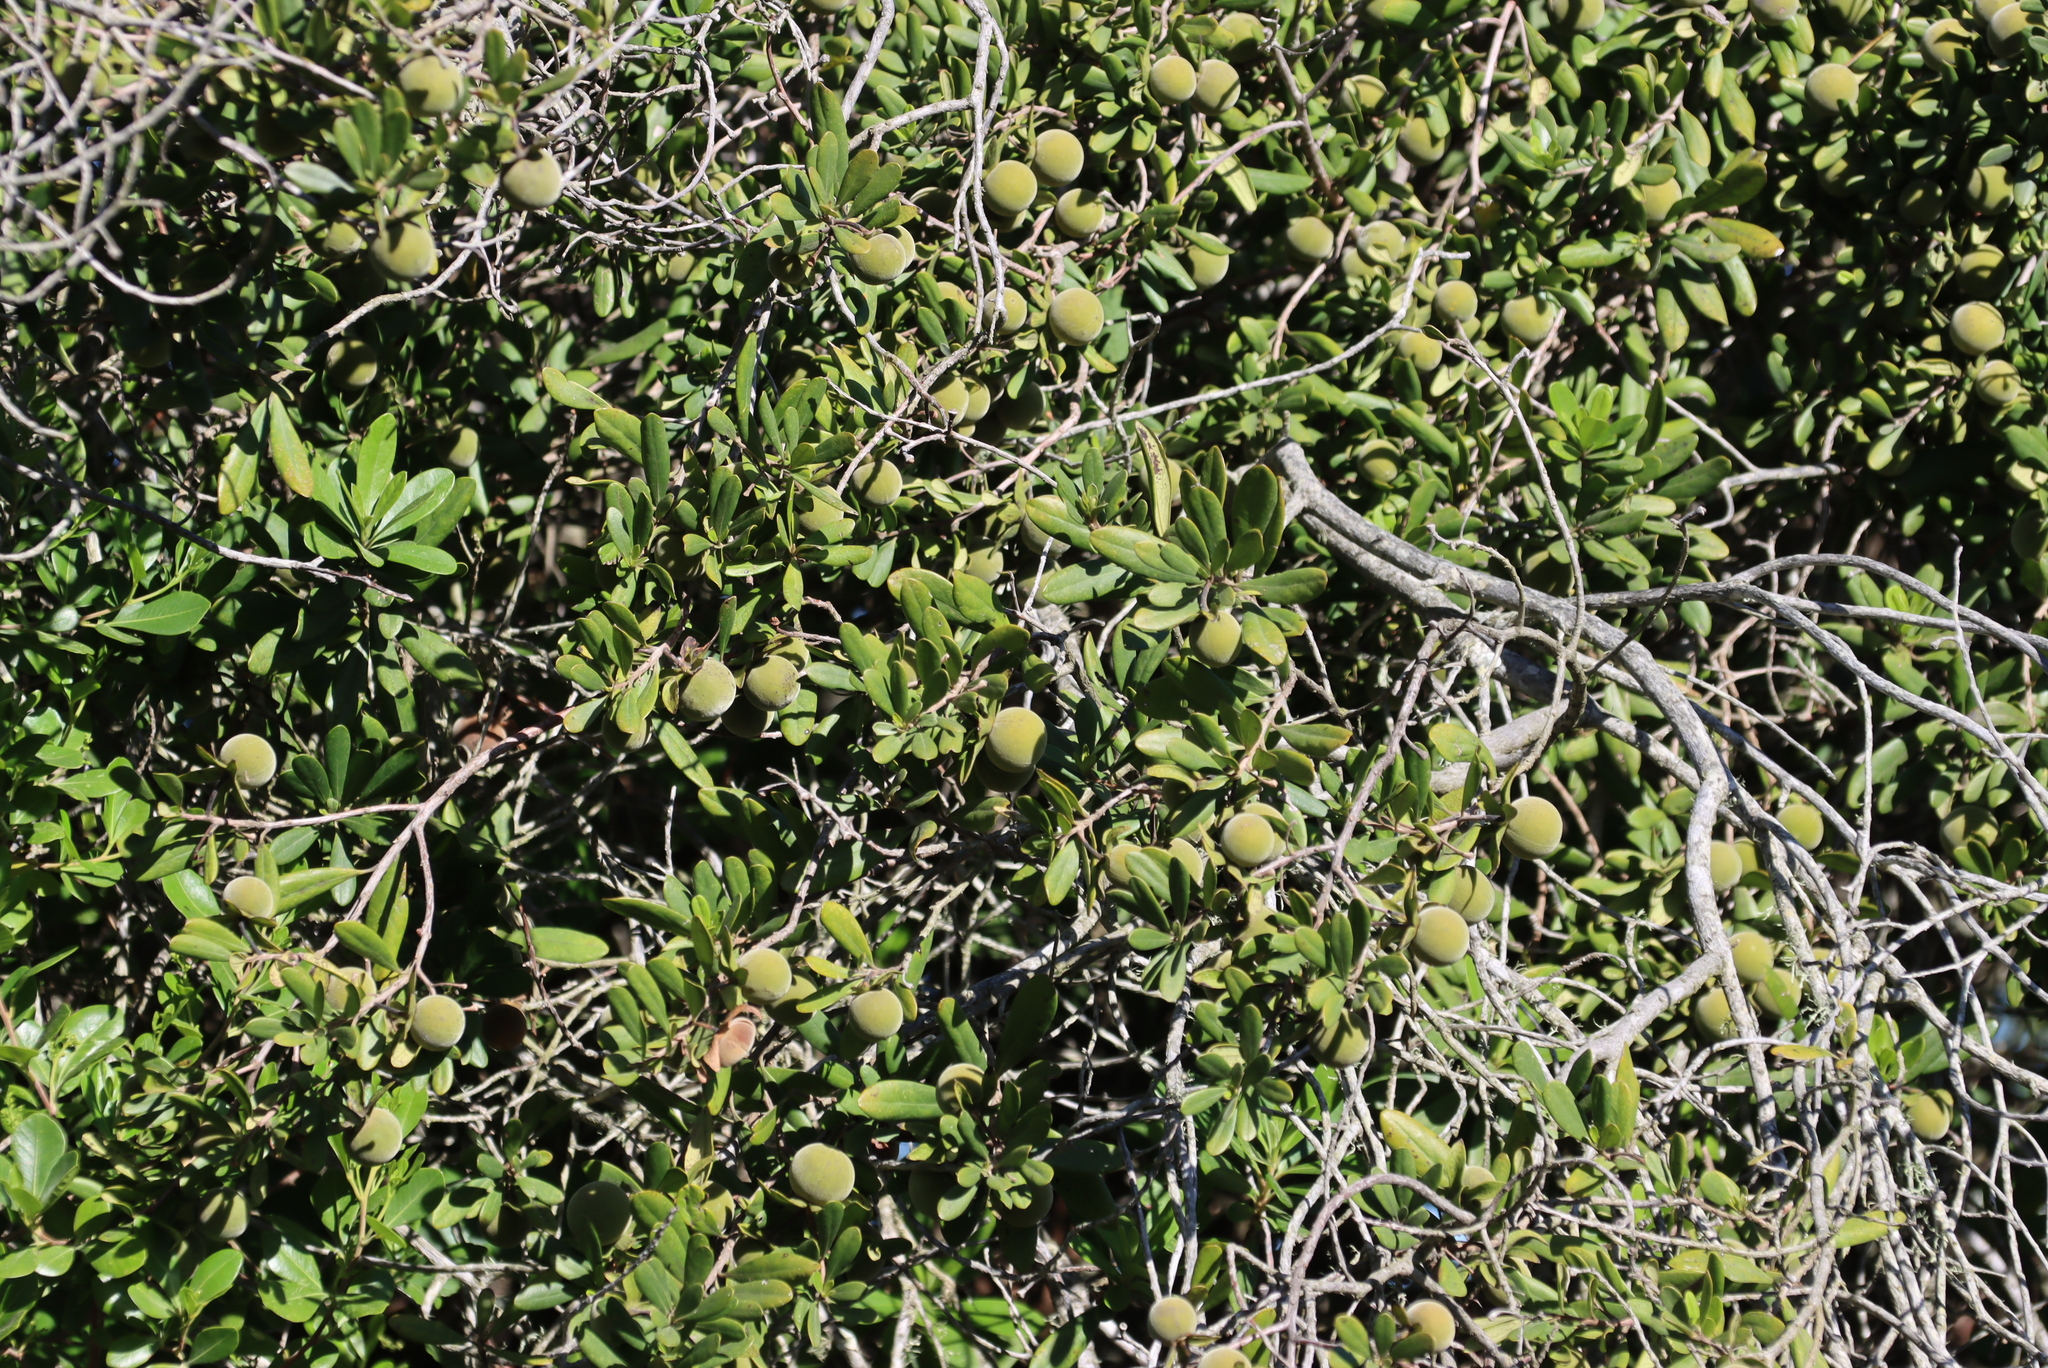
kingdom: Plantae
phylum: Tracheophyta
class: Magnoliopsida
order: Ericales
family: Ebenaceae
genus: Diospyros
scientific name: Diospyros dichrophylla
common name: Common star-apple
